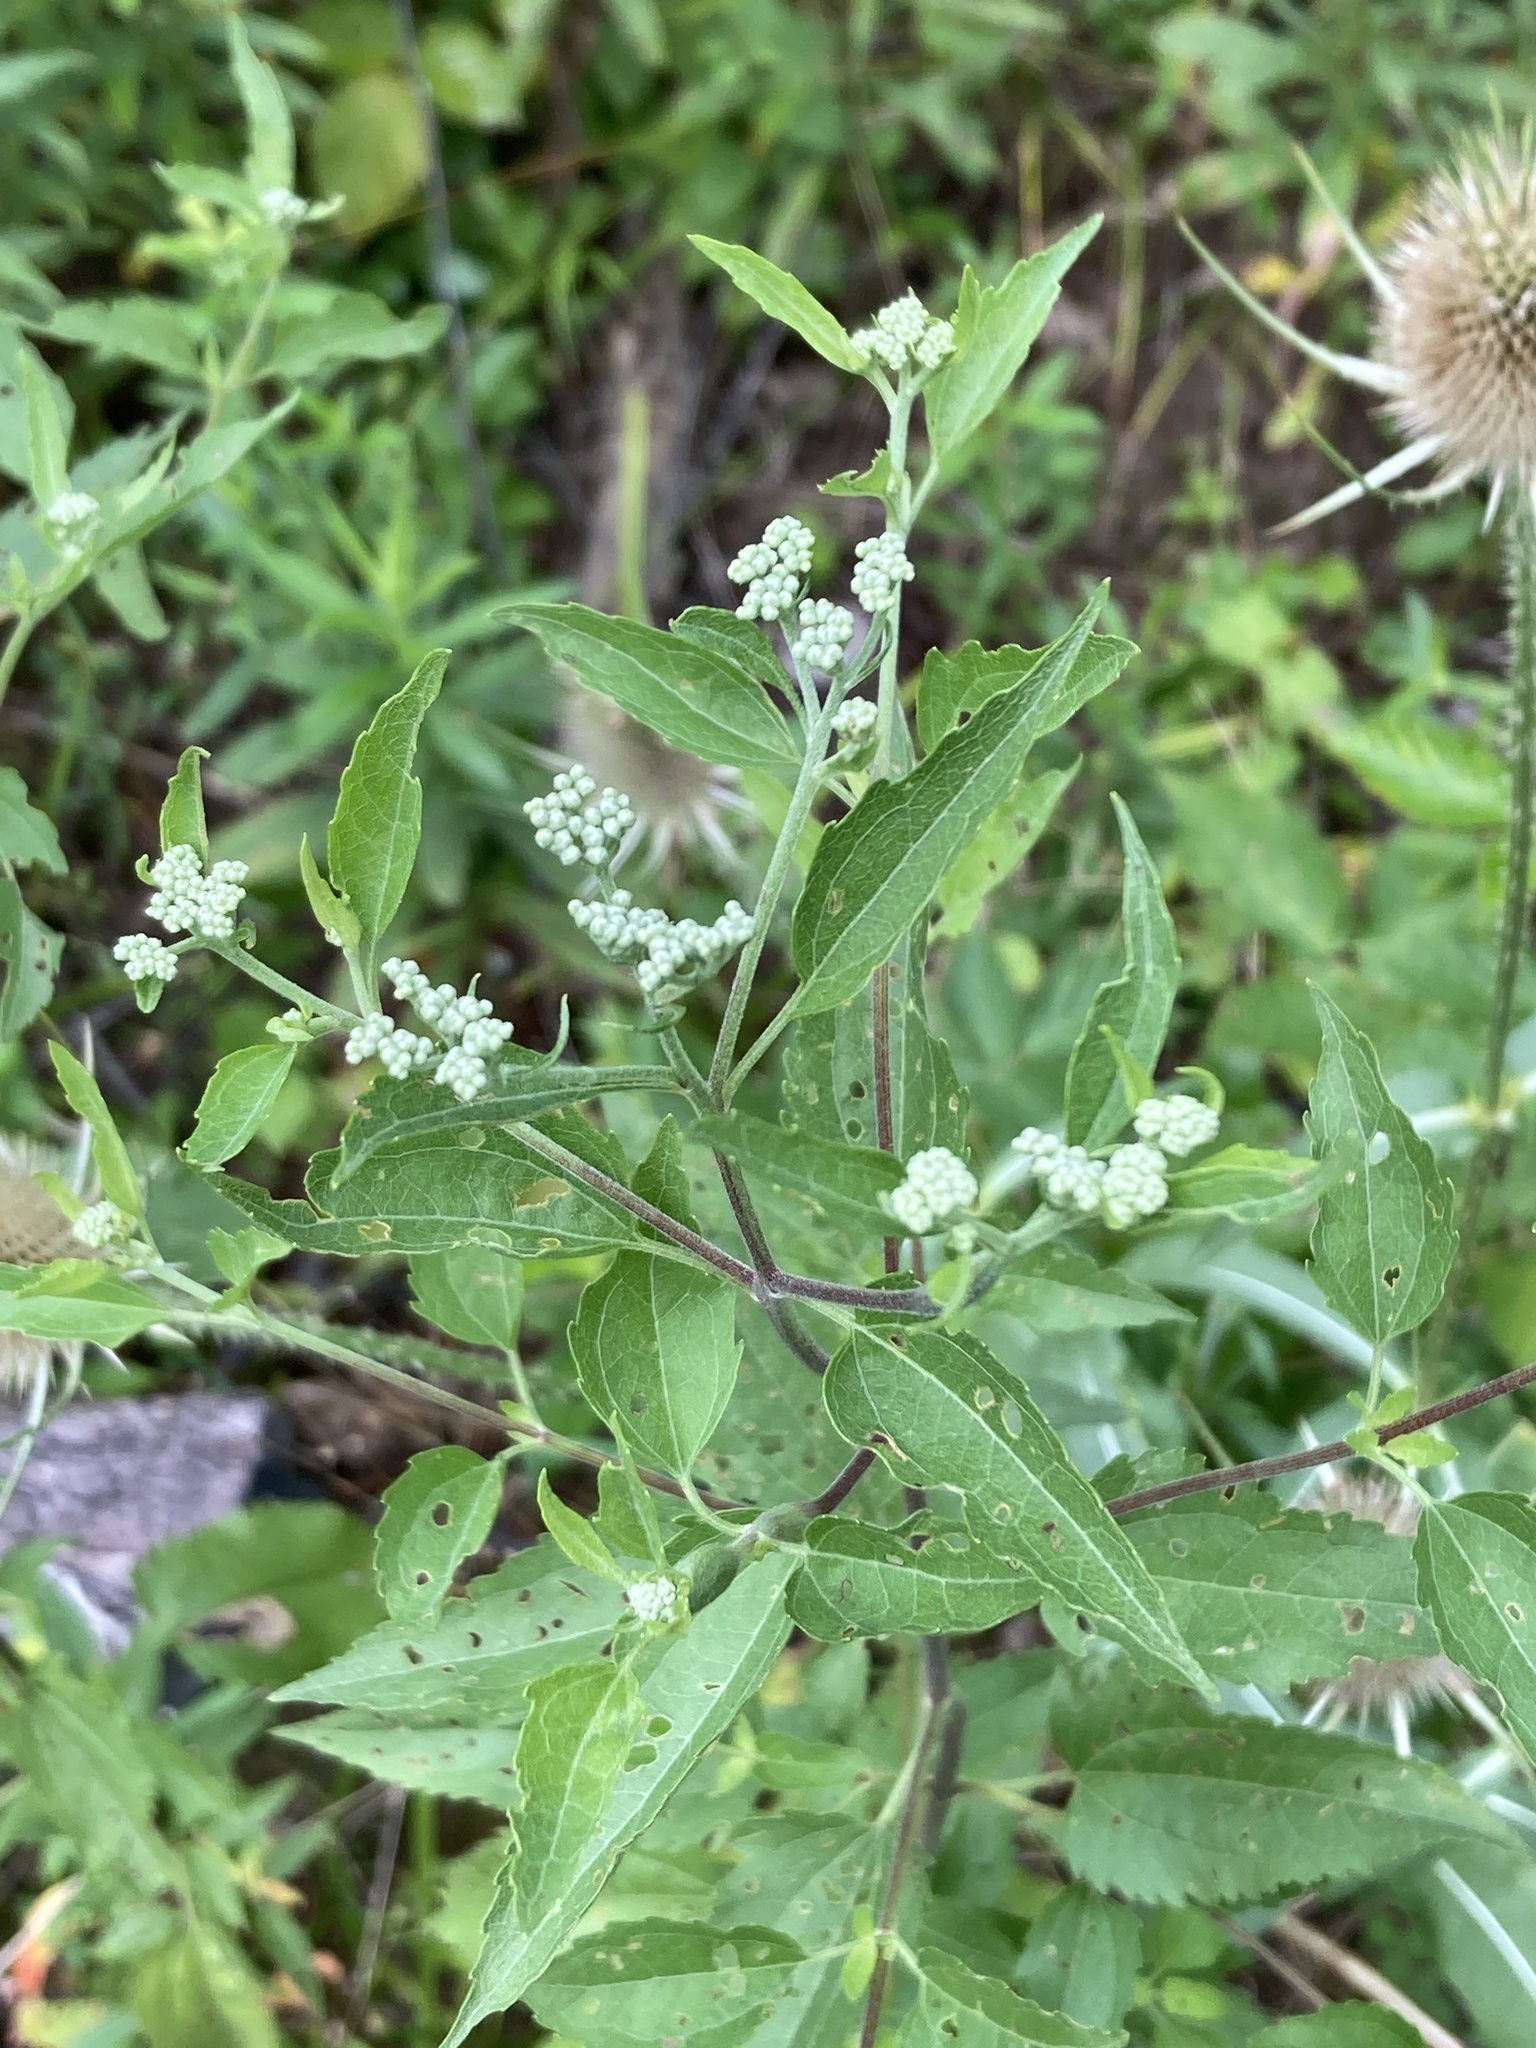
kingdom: Plantae
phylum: Tracheophyta
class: Magnoliopsida
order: Asterales
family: Asteraceae
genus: Eupatorium
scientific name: Eupatorium serotinum
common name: Late boneset
